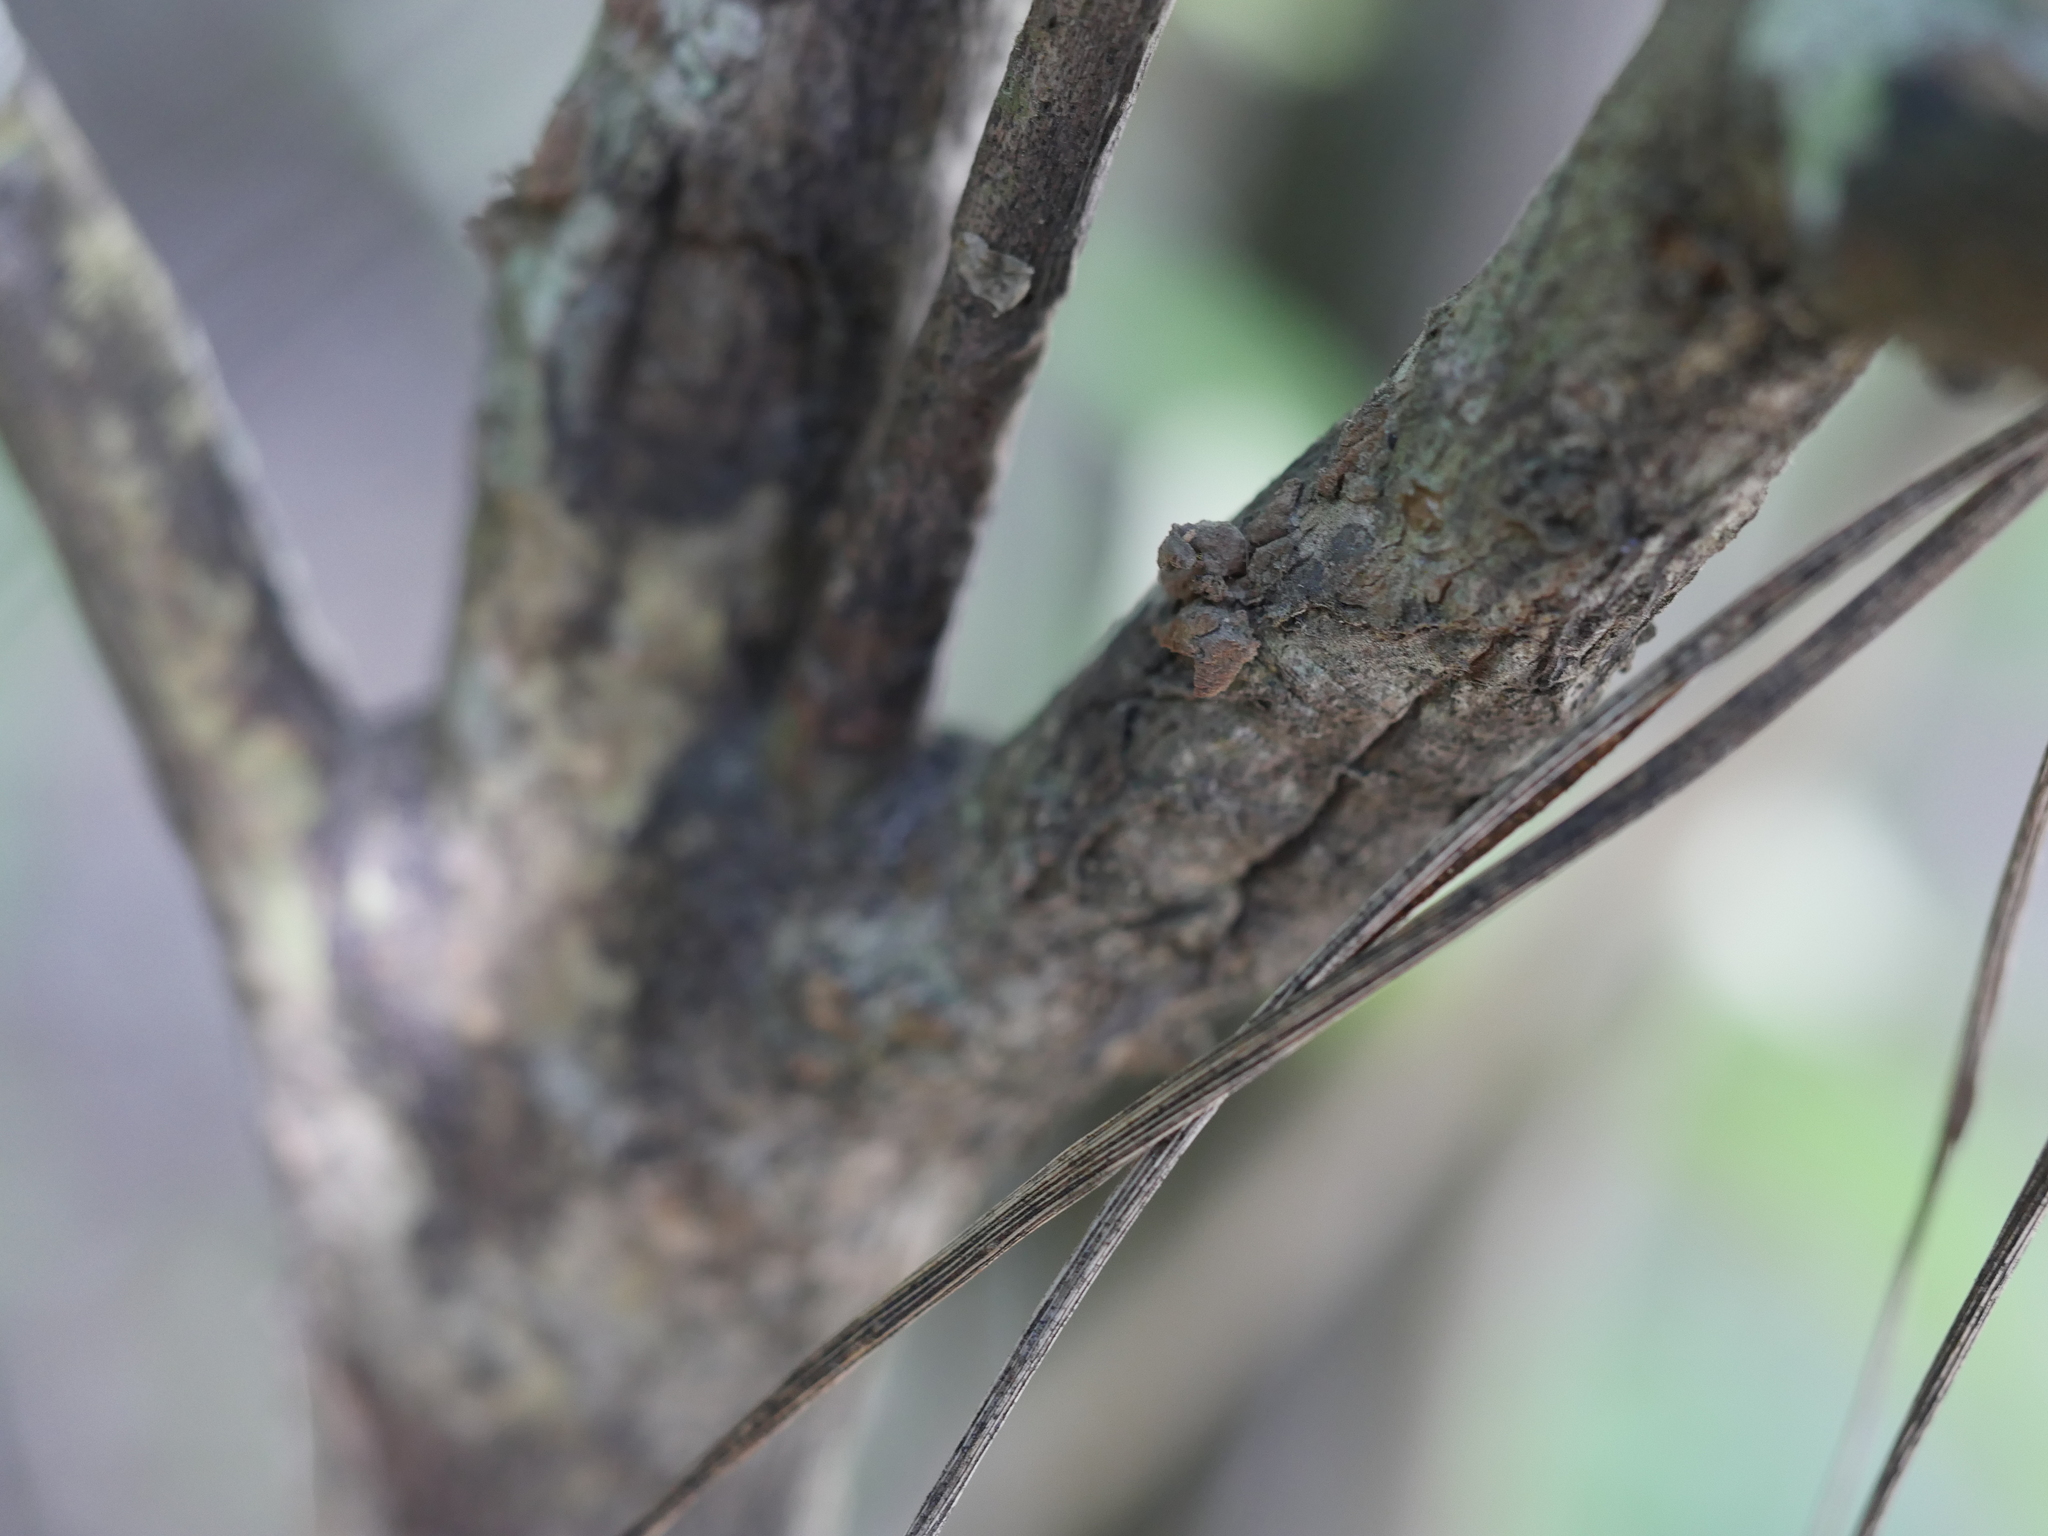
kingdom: Plantae
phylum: Tracheophyta
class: Magnoliopsida
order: Laurales
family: Monimiaceae
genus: Hedycarya
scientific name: Hedycarya arborea
